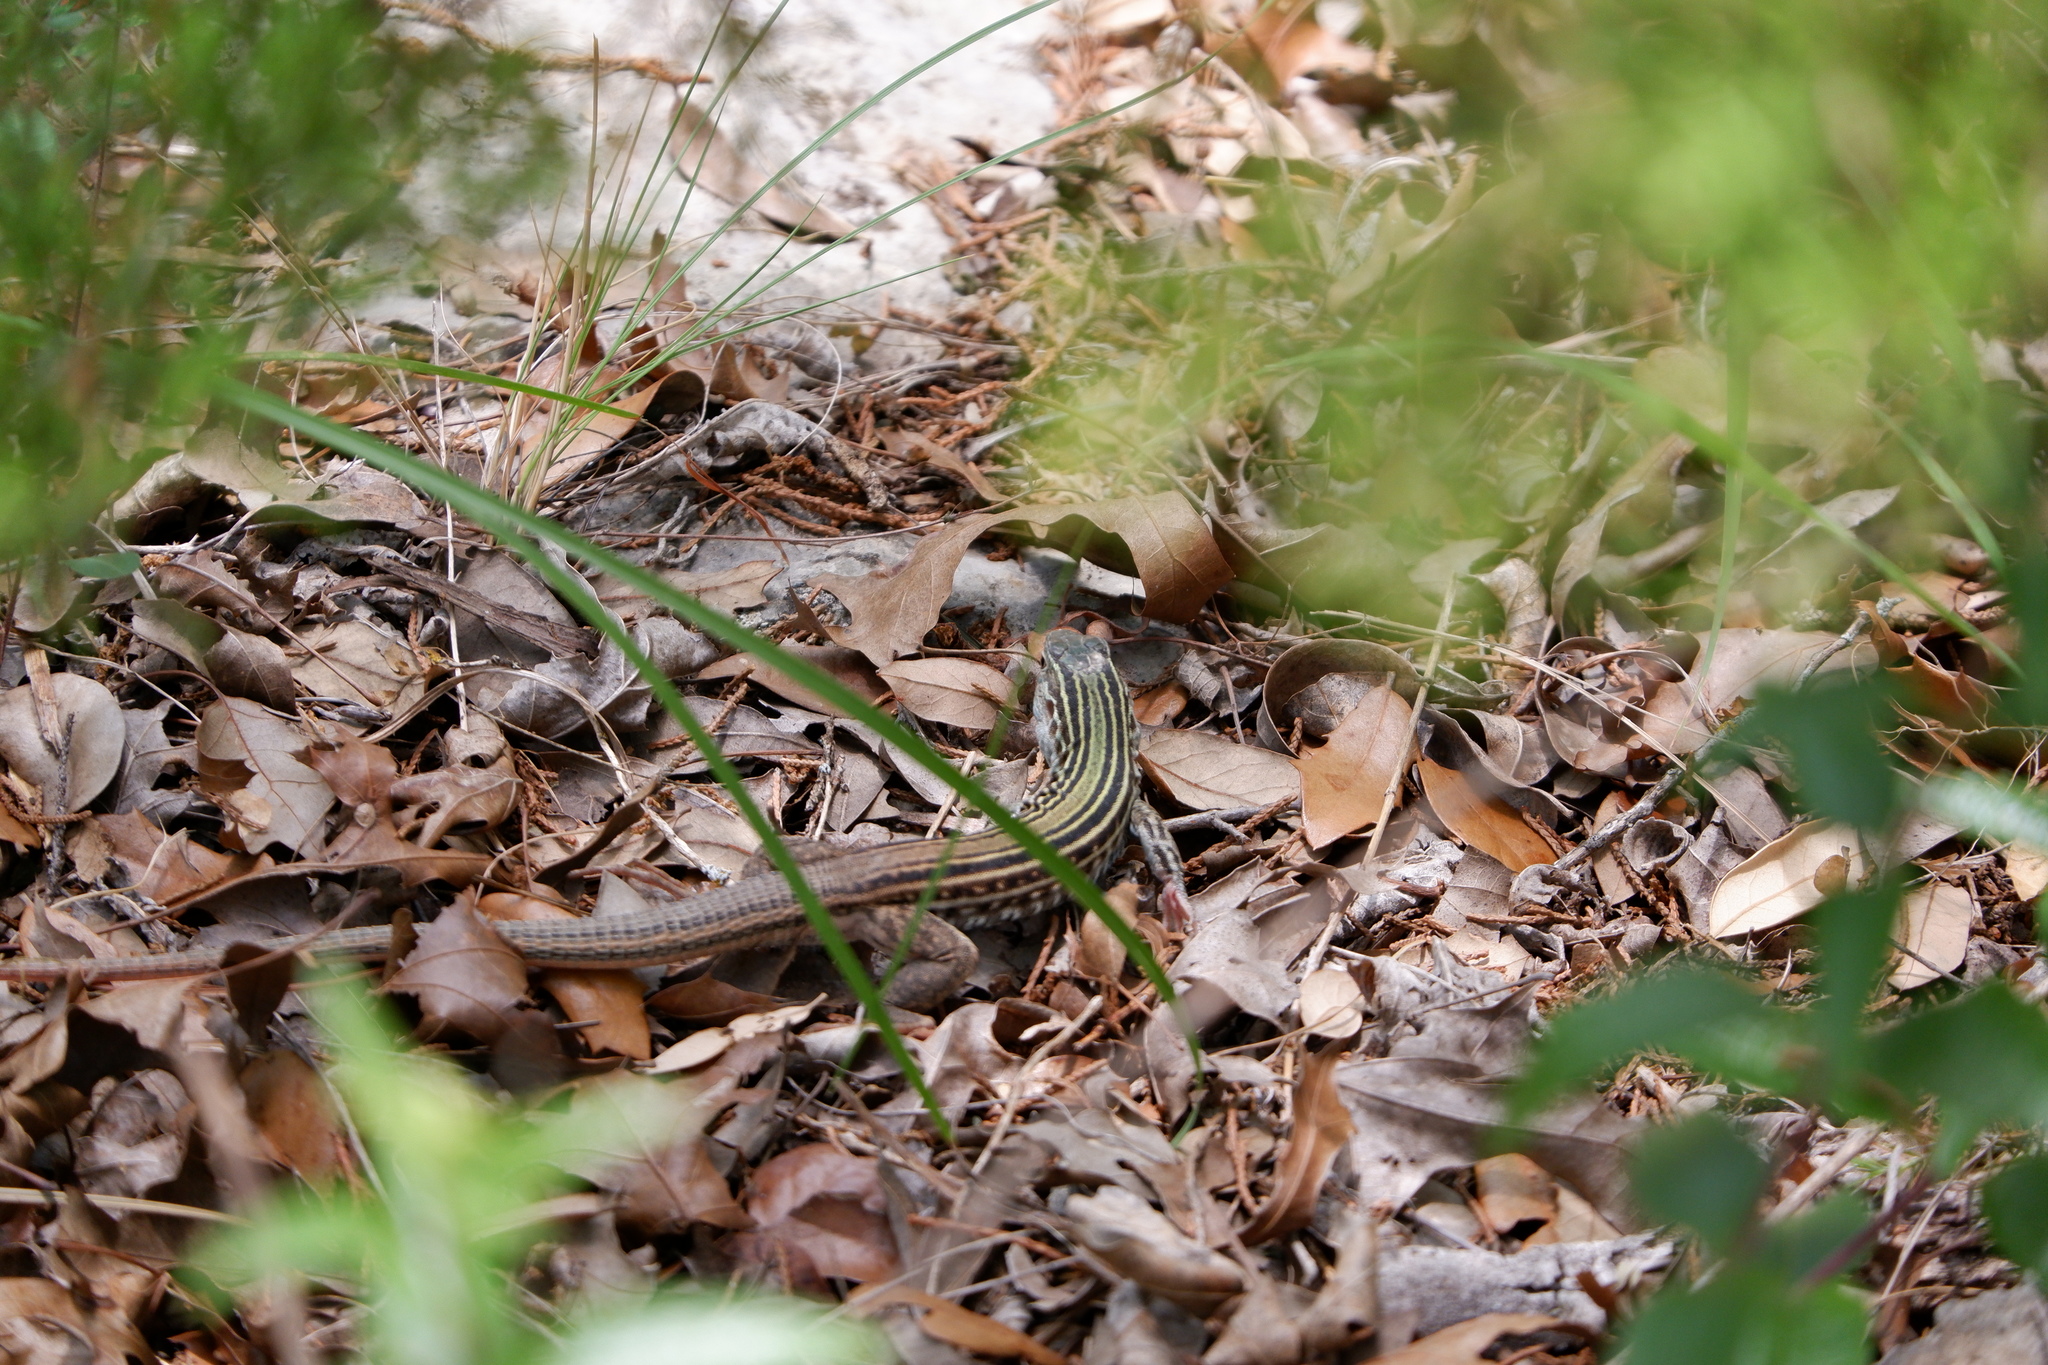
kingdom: Animalia
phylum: Chordata
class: Squamata
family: Teiidae
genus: Aspidoscelis
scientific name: Aspidoscelis gularis
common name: Eastern spotted whiptail
